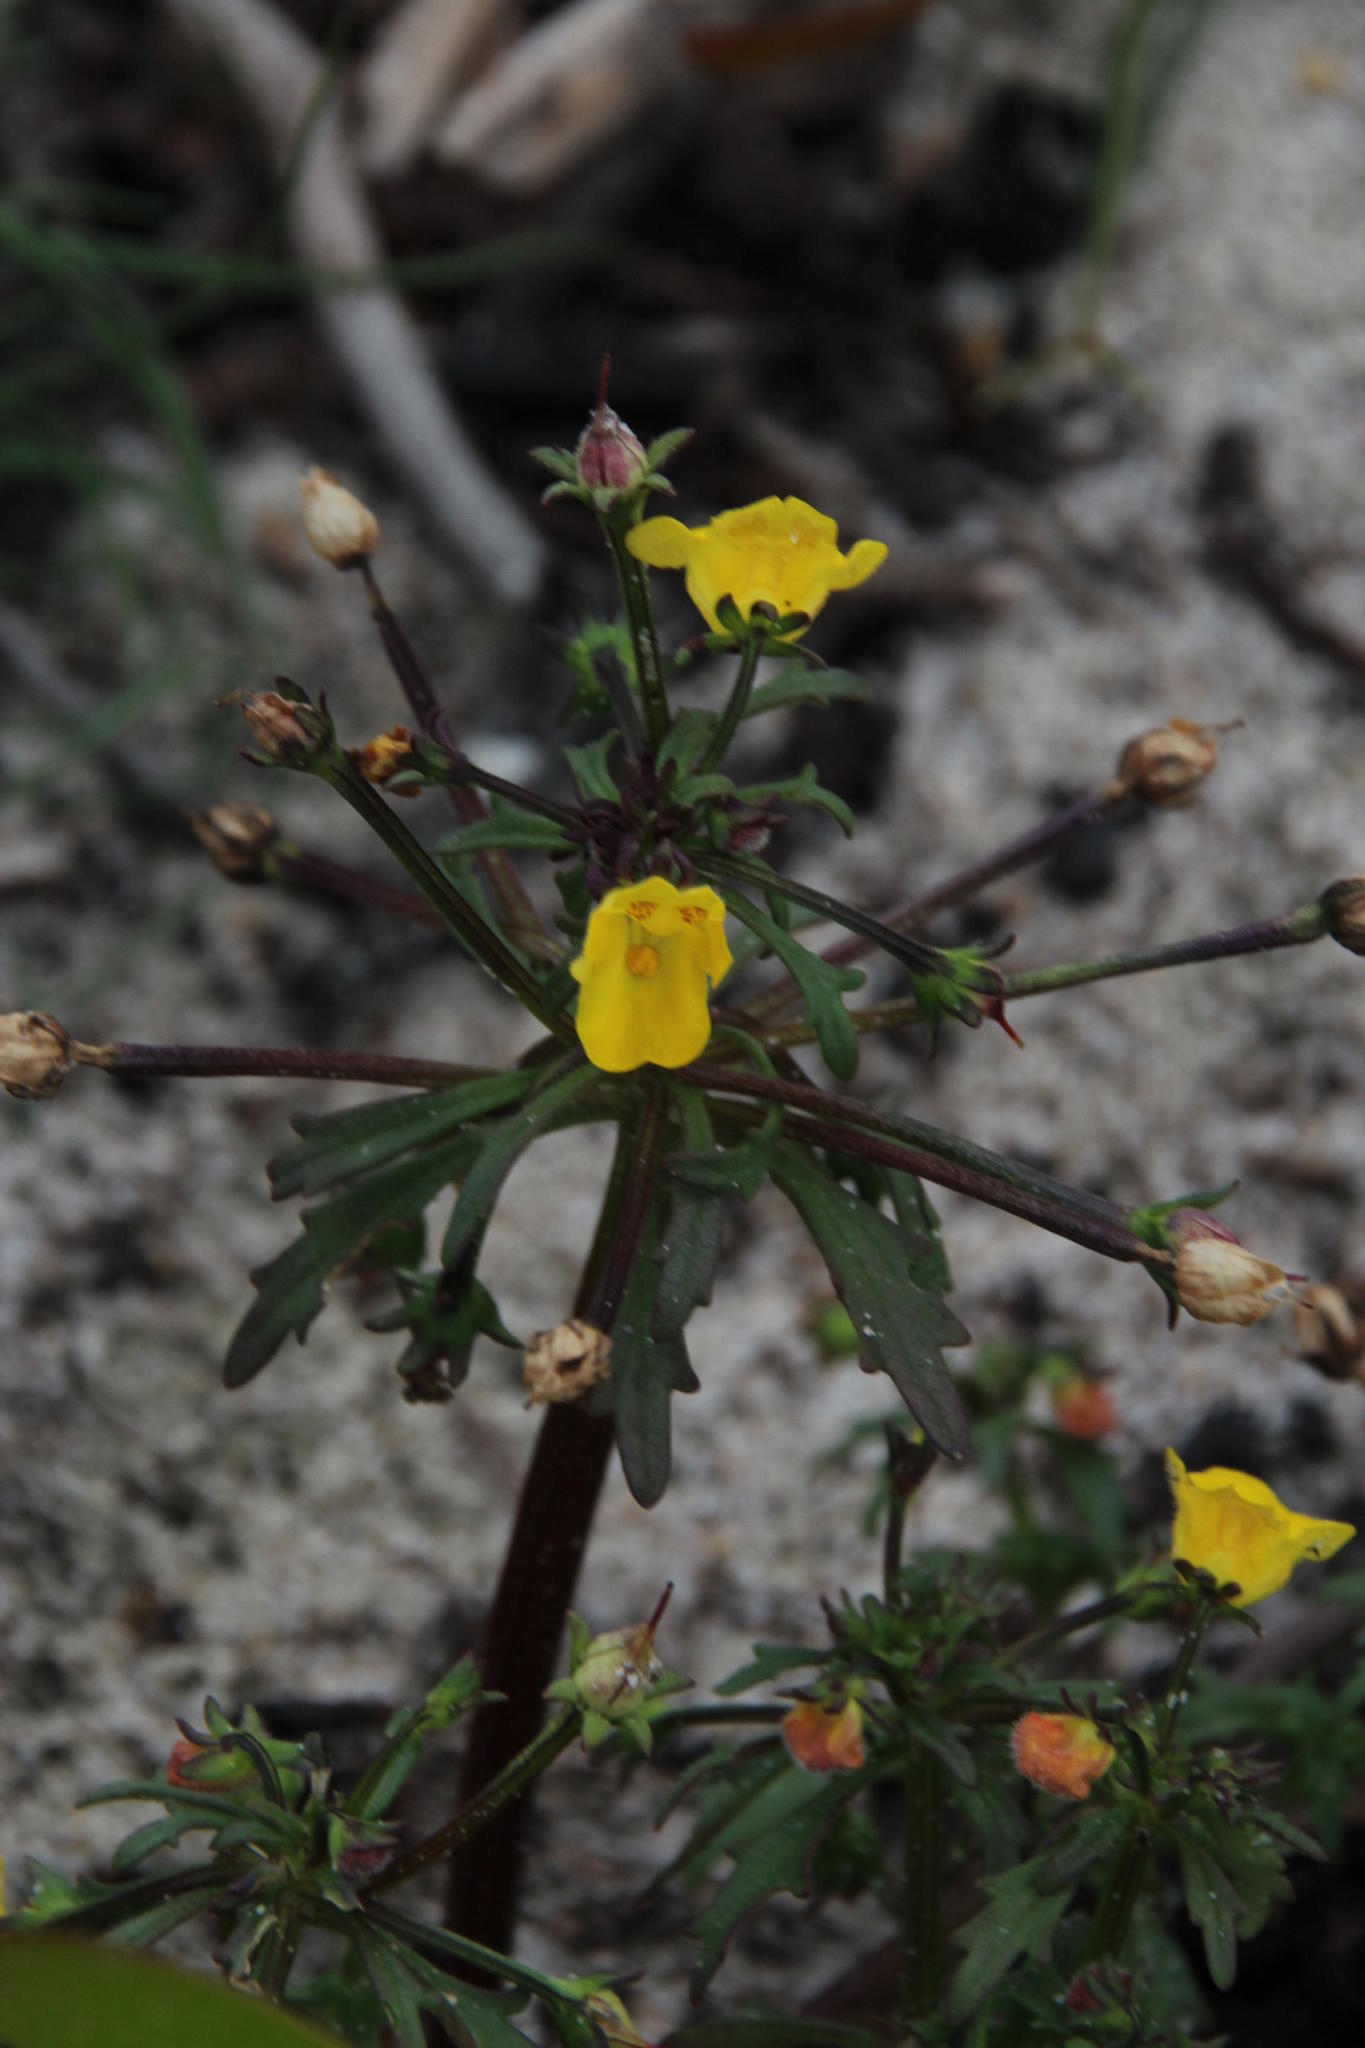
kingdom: Plantae
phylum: Tracheophyta
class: Magnoliopsida
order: Lamiales
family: Scrophulariaceae
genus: Hemimeris
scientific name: Hemimeris sabulosa
